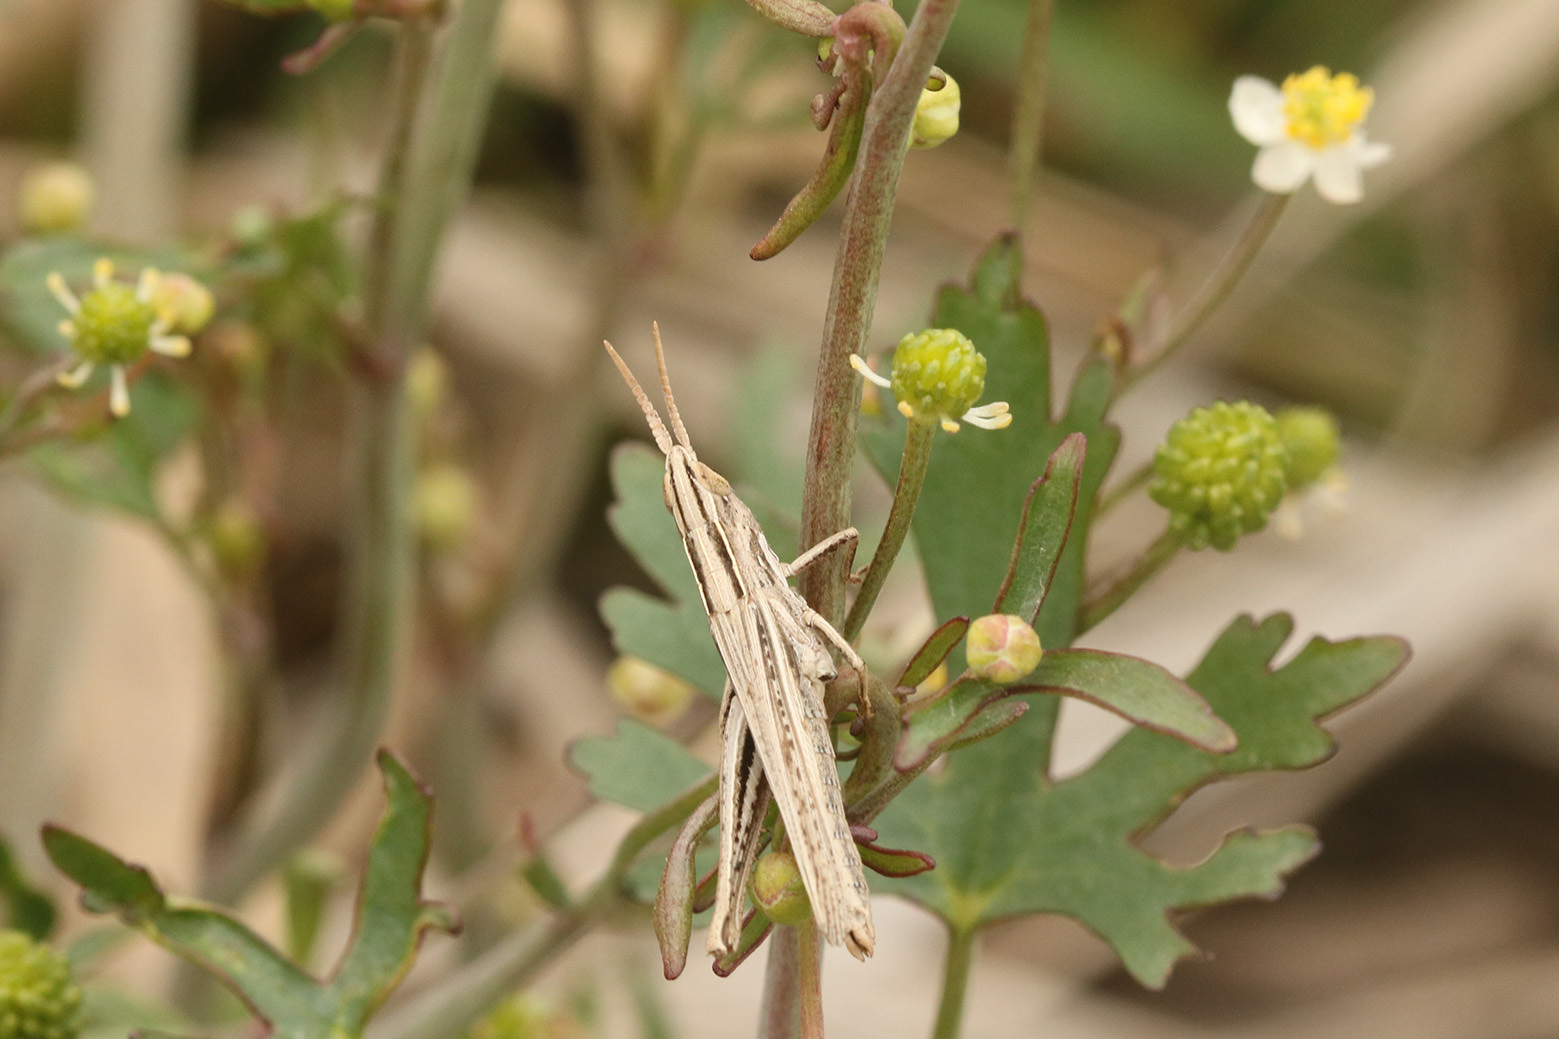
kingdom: Animalia
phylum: Arthropoda
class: Insecta
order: Orthoptera
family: Acrididae
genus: Laplatacris
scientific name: Laplatacris dispar
